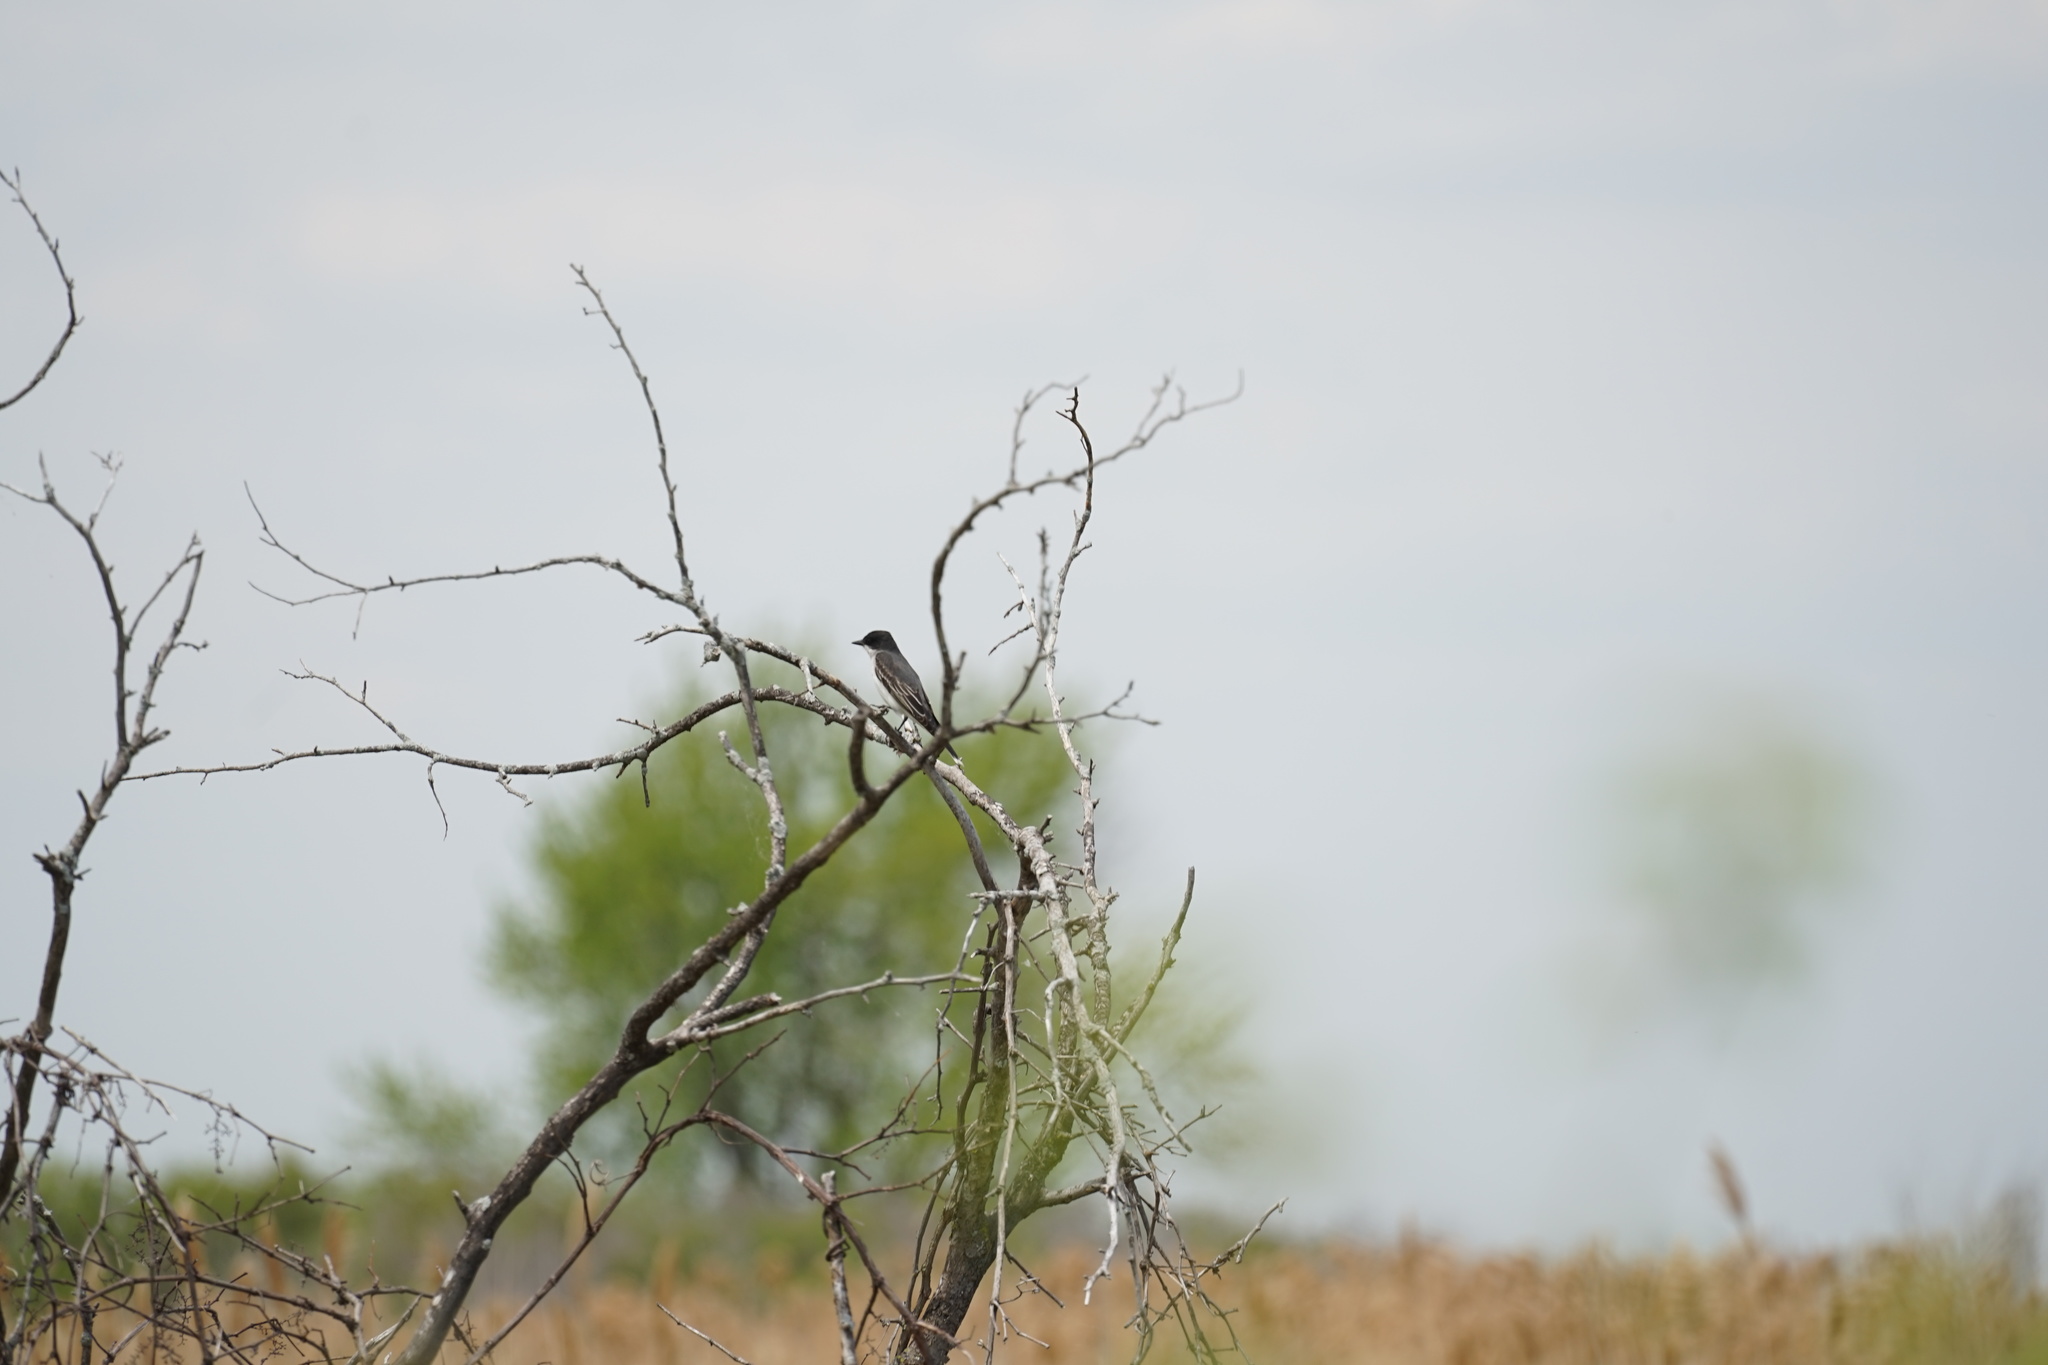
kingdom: Animalia
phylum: Chordata
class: Aves
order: Passeriformes
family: Tyrannidae
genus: Tyrannus
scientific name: Tyrannus tyrannus
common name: Eastern kingbird
